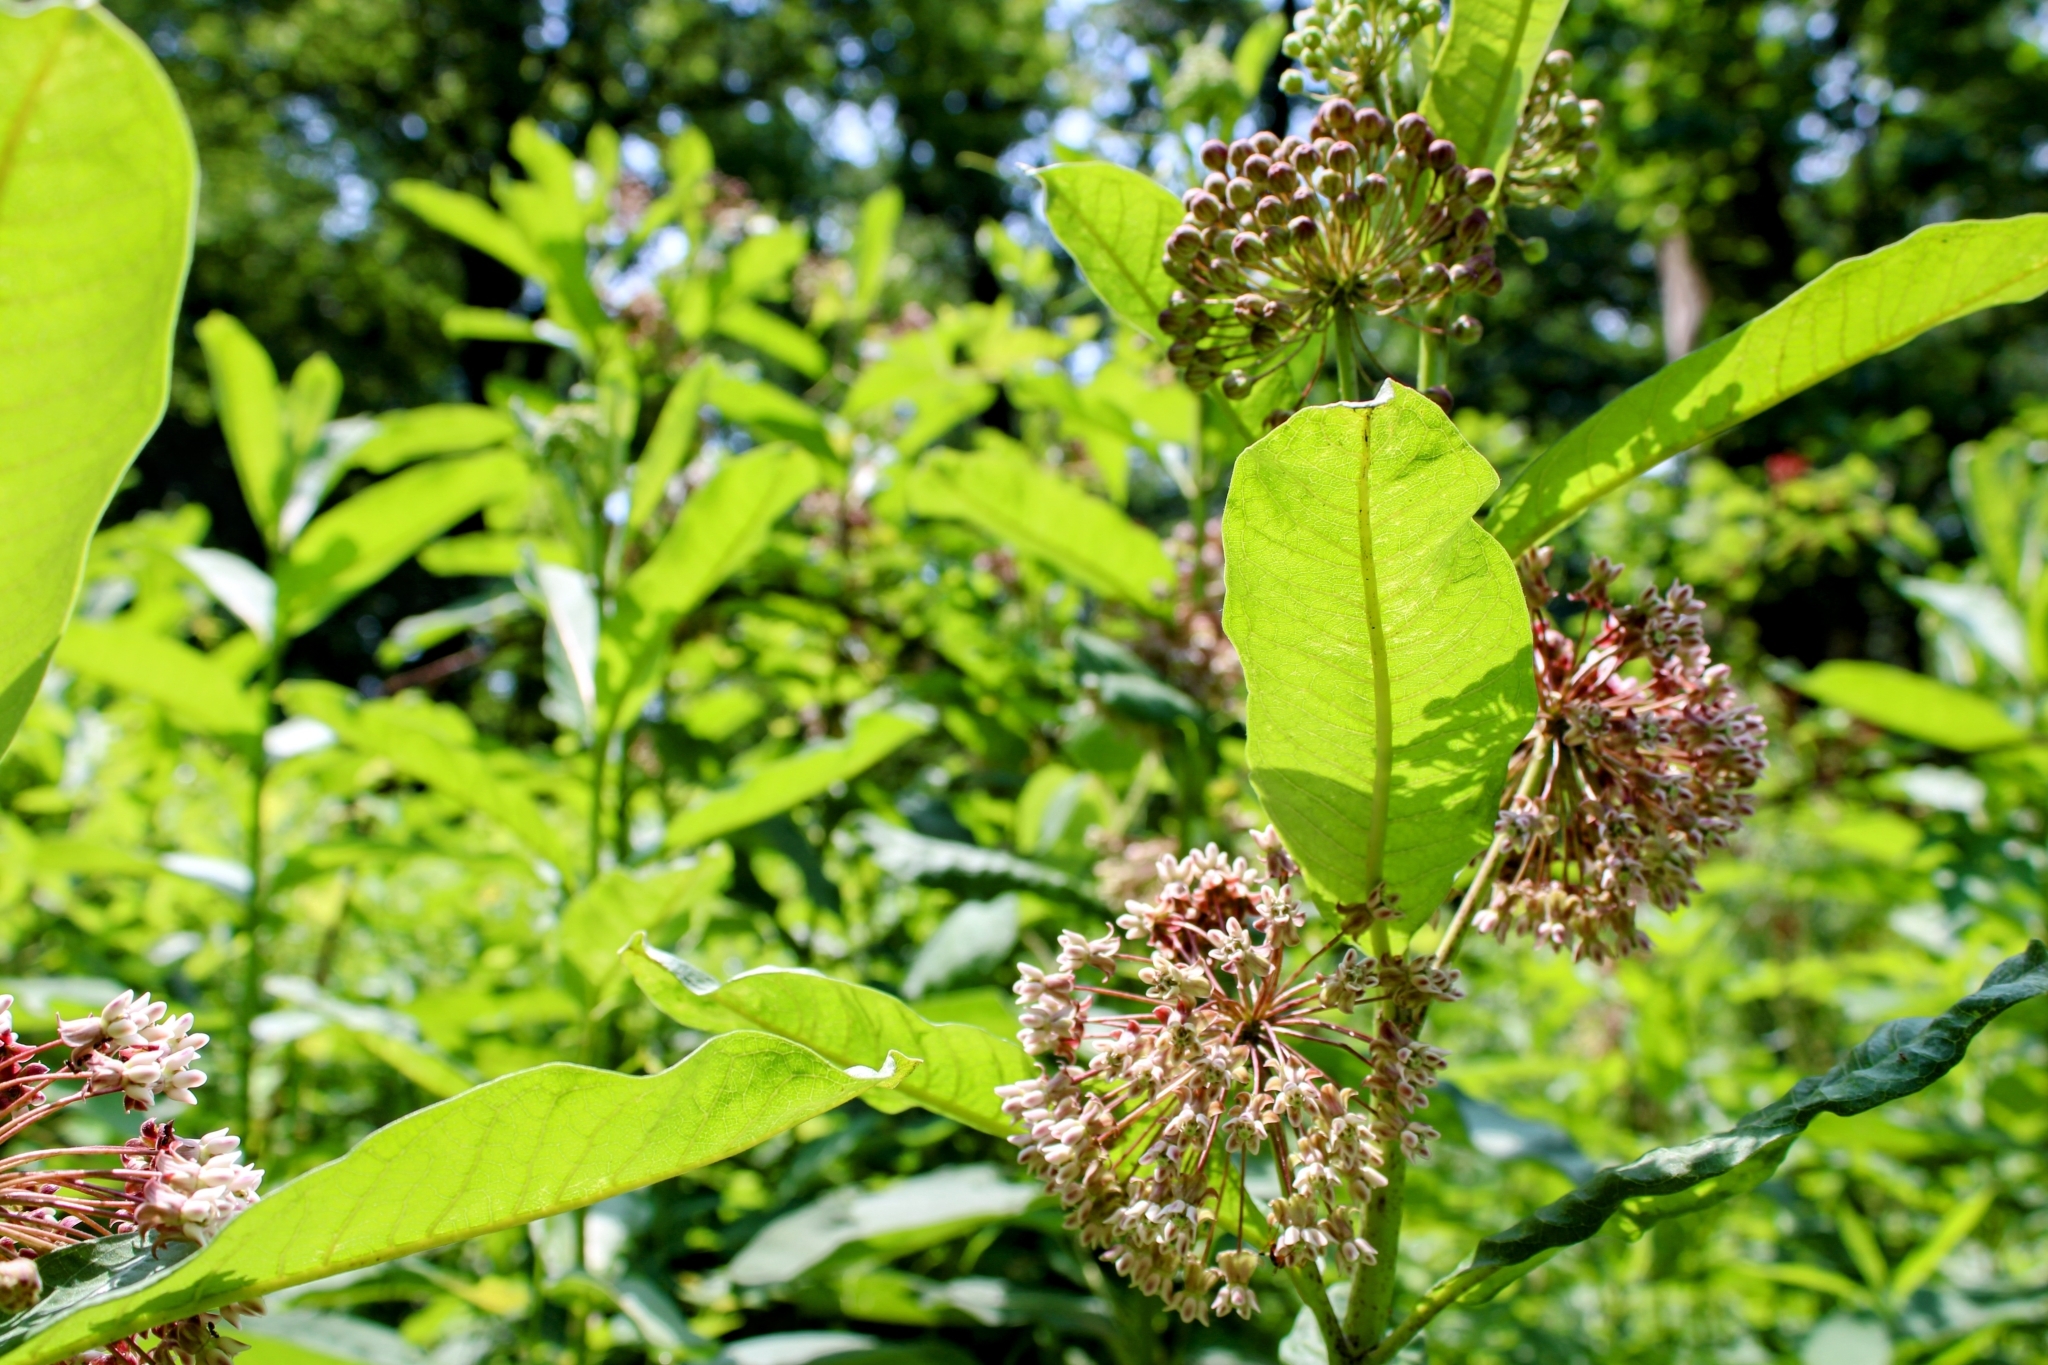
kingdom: Plantae
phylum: Tracheophyta
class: Magnoliopsida
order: Gentianales
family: Apocynaceae
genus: Asclepias
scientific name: Asclepias syriaca
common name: Common milkweed
